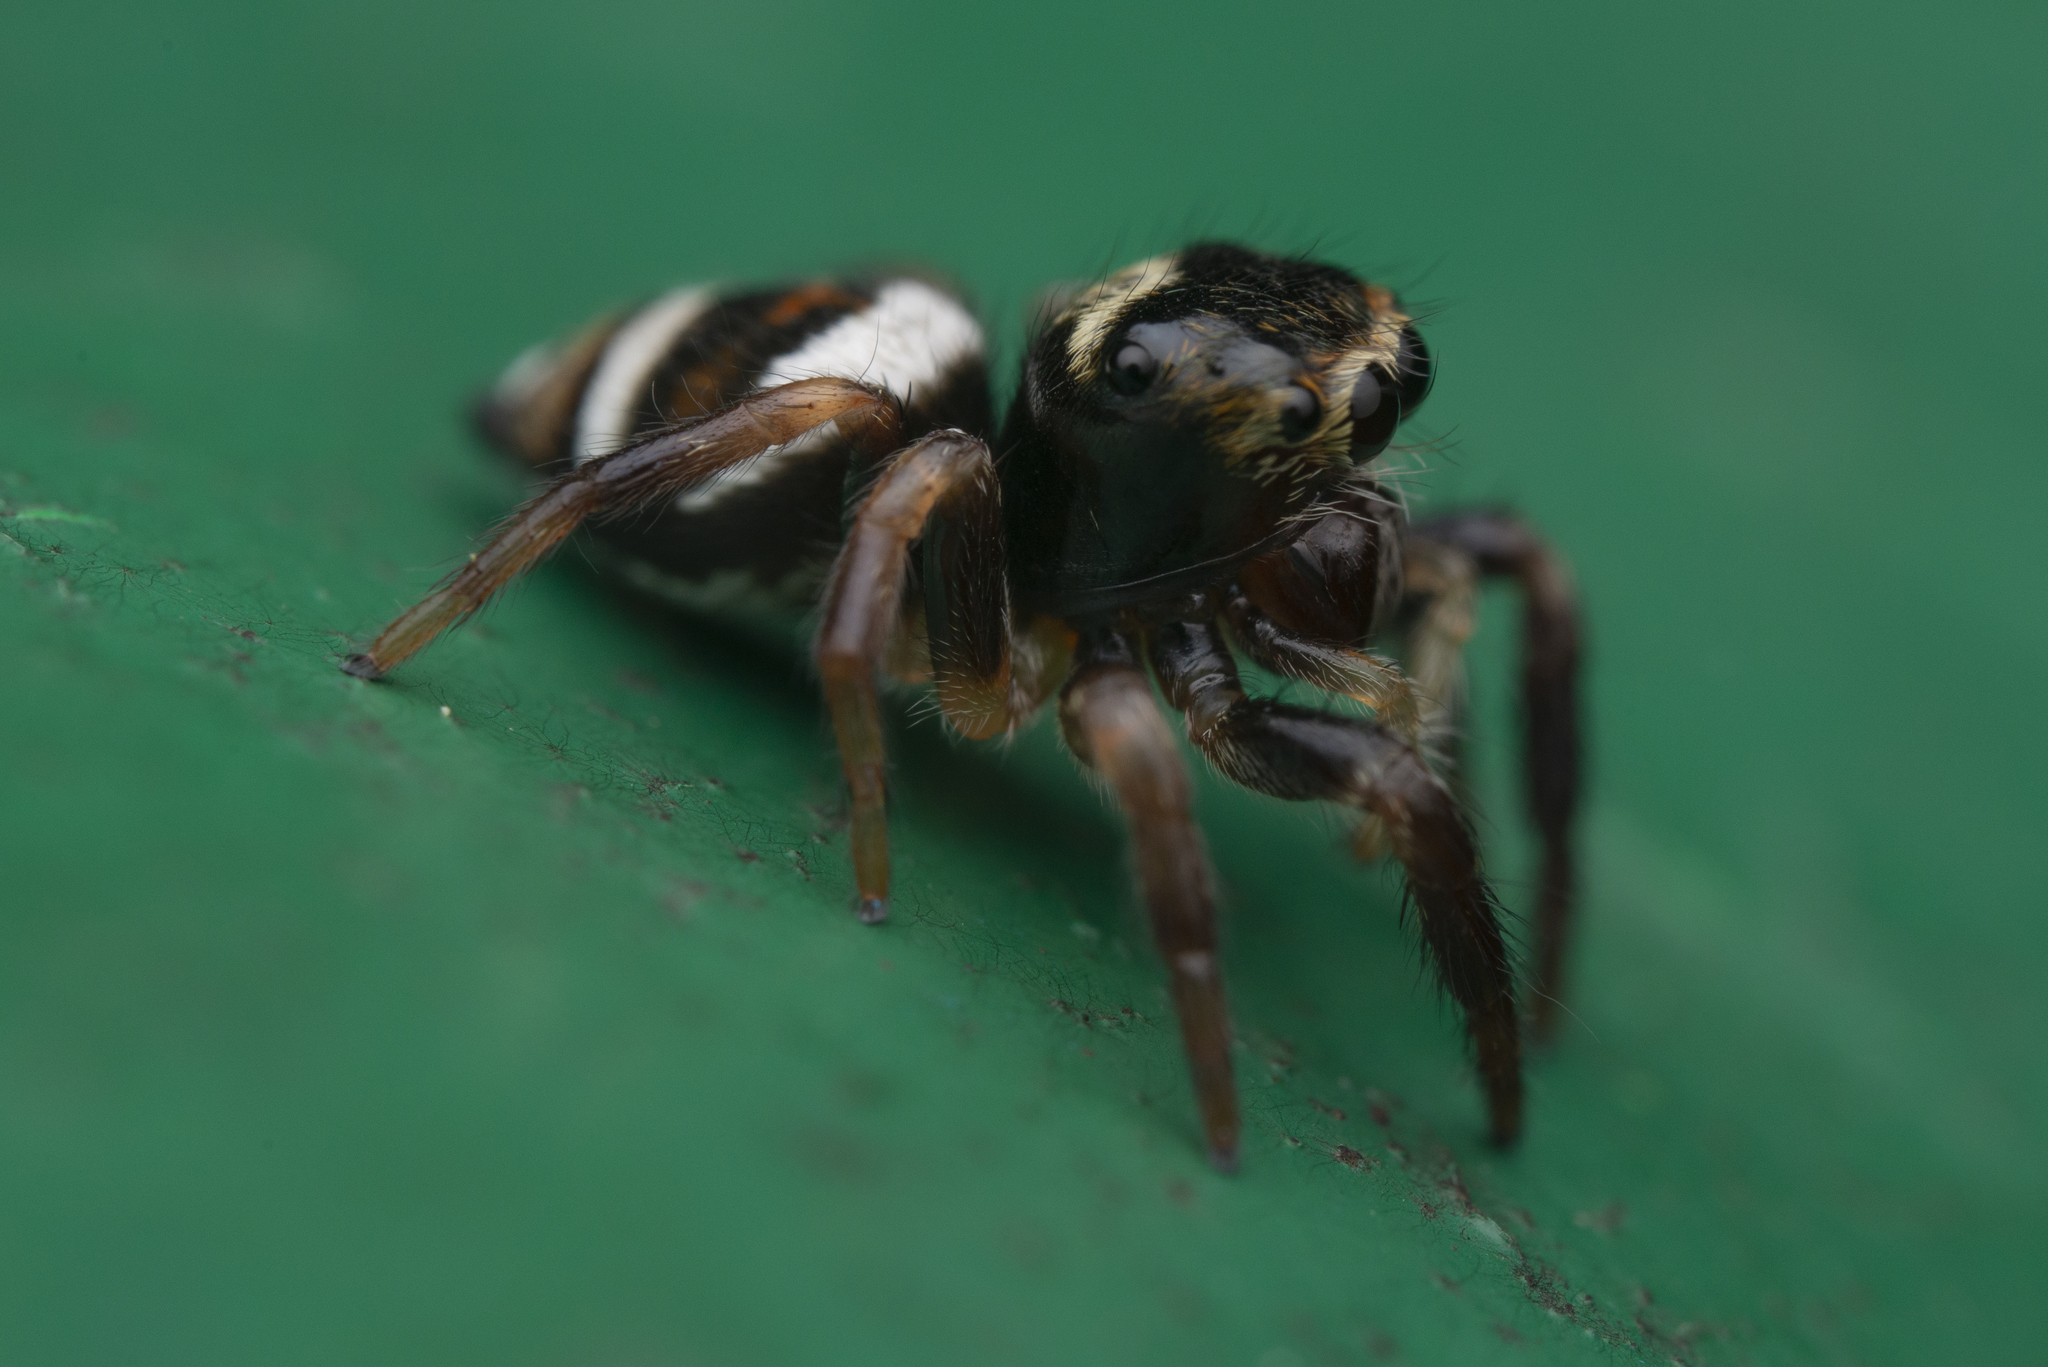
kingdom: Animalia
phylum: Arthropoda
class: Arachnida
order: Araneae
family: Salticidae
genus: Ptocasius
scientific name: Ptocasius strupifer
